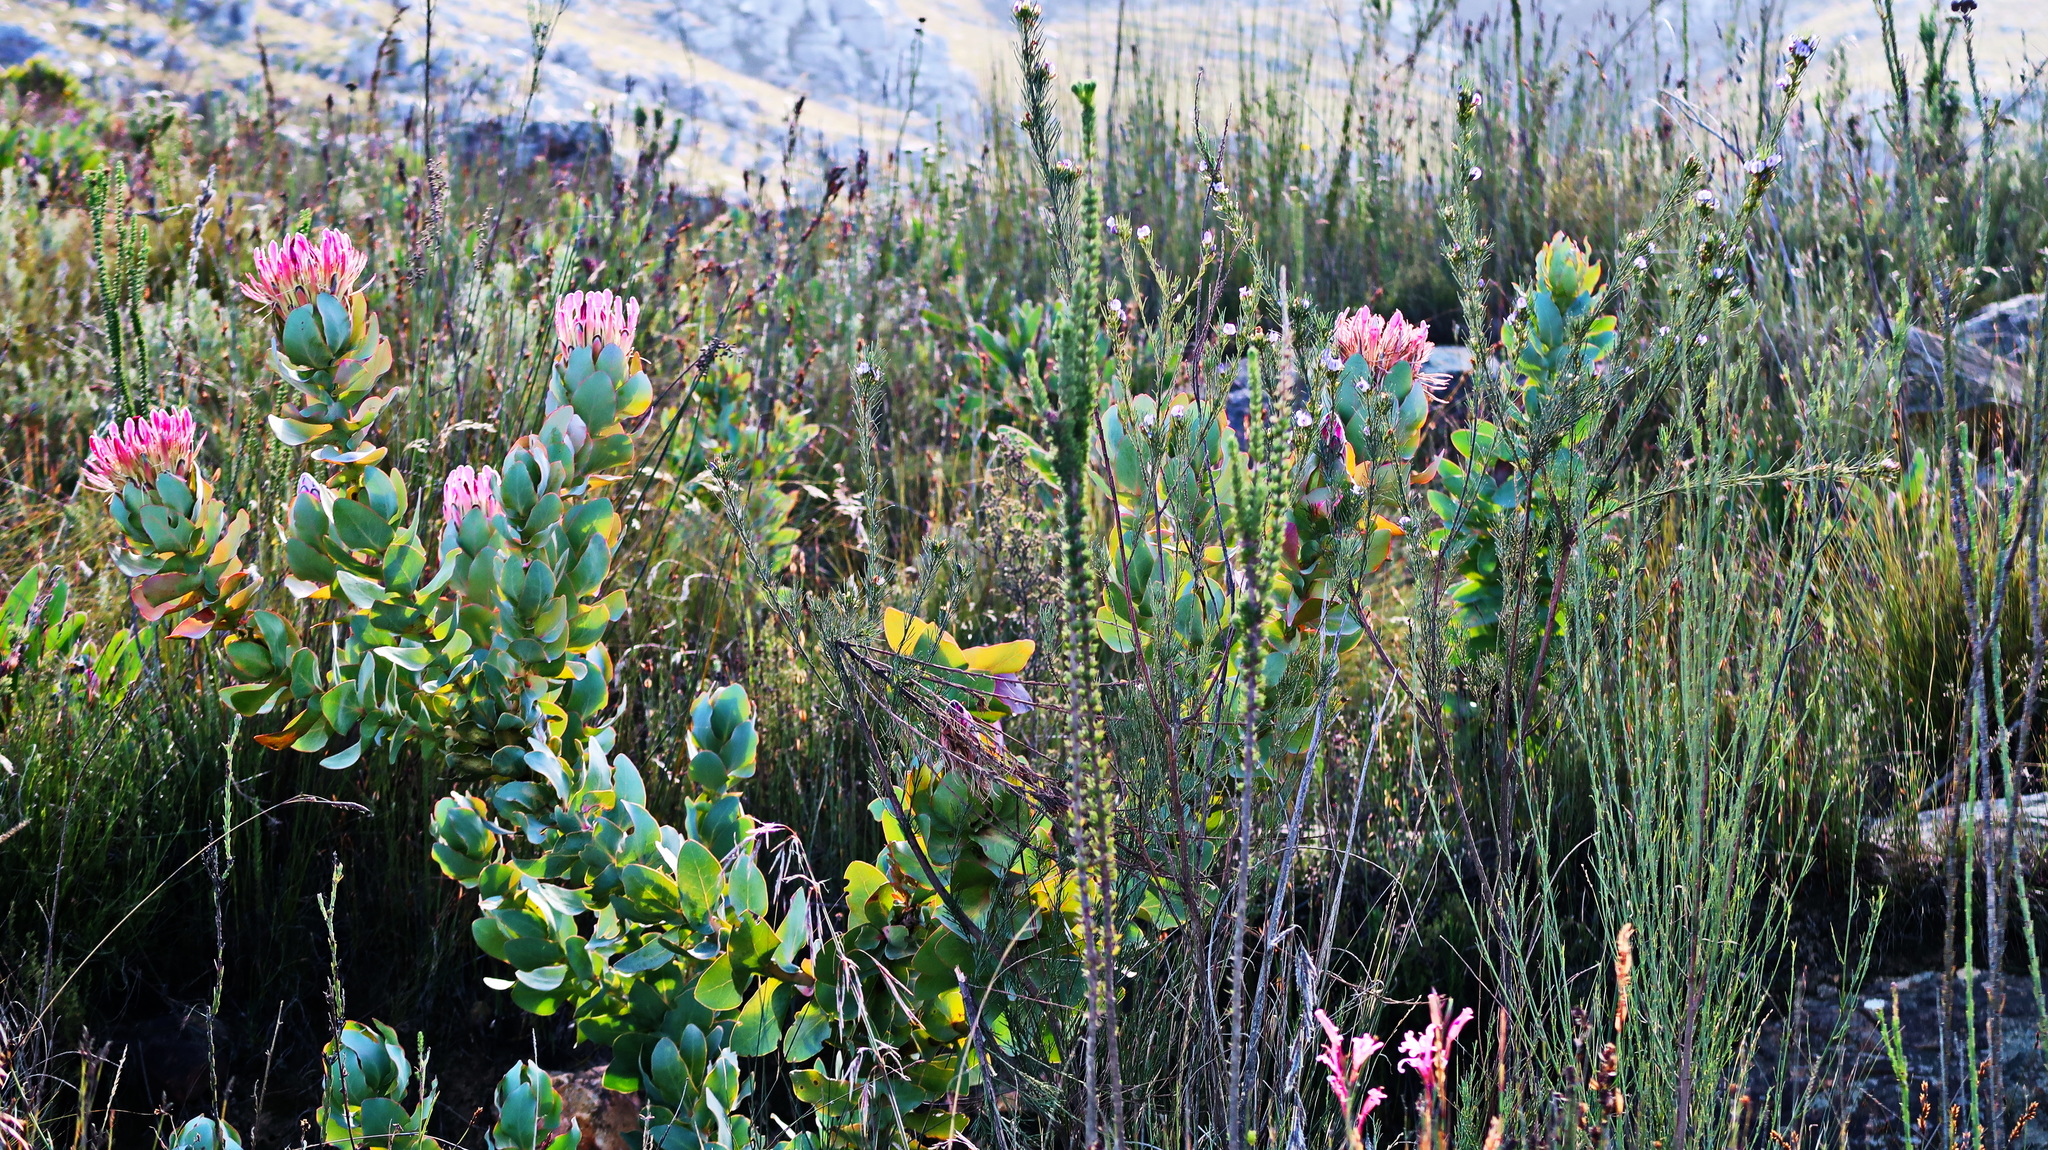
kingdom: Plantae
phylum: Tracheophyta
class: Magnoliopsida
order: Proteales
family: Proteaceae
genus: Protea
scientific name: Protea eximia
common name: Broad-leaved sugarbush
